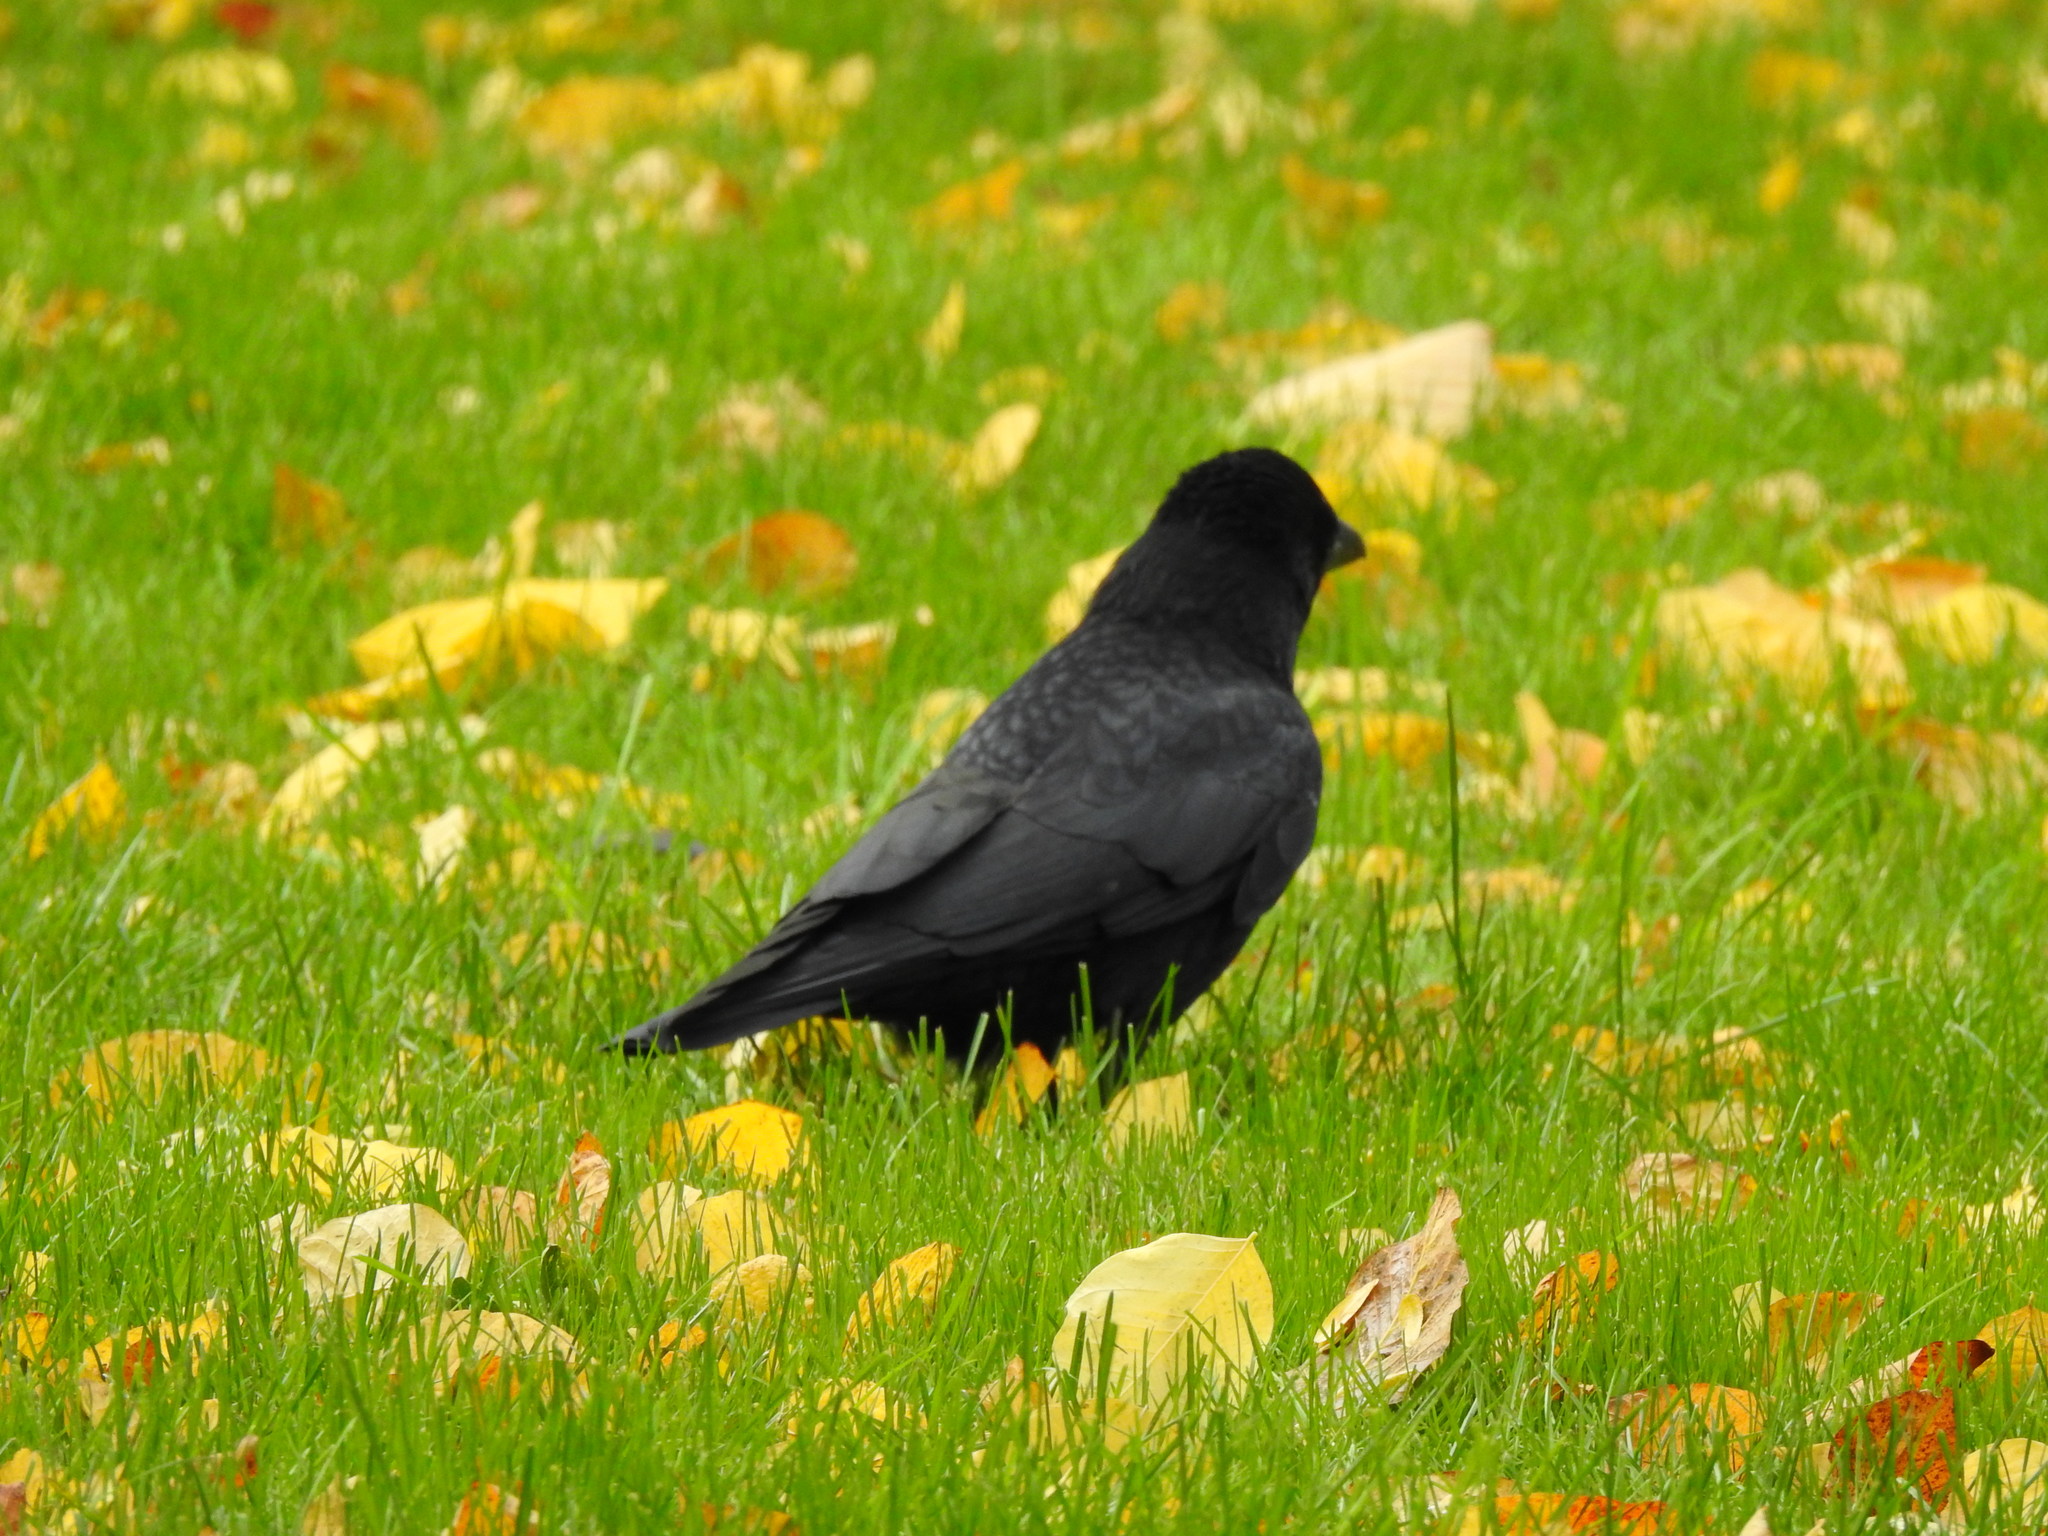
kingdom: Animalia
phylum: Chordata
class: Aves
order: Passeriformes
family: Corvidae
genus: Corvus
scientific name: Corvus corone
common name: Carrion crow
